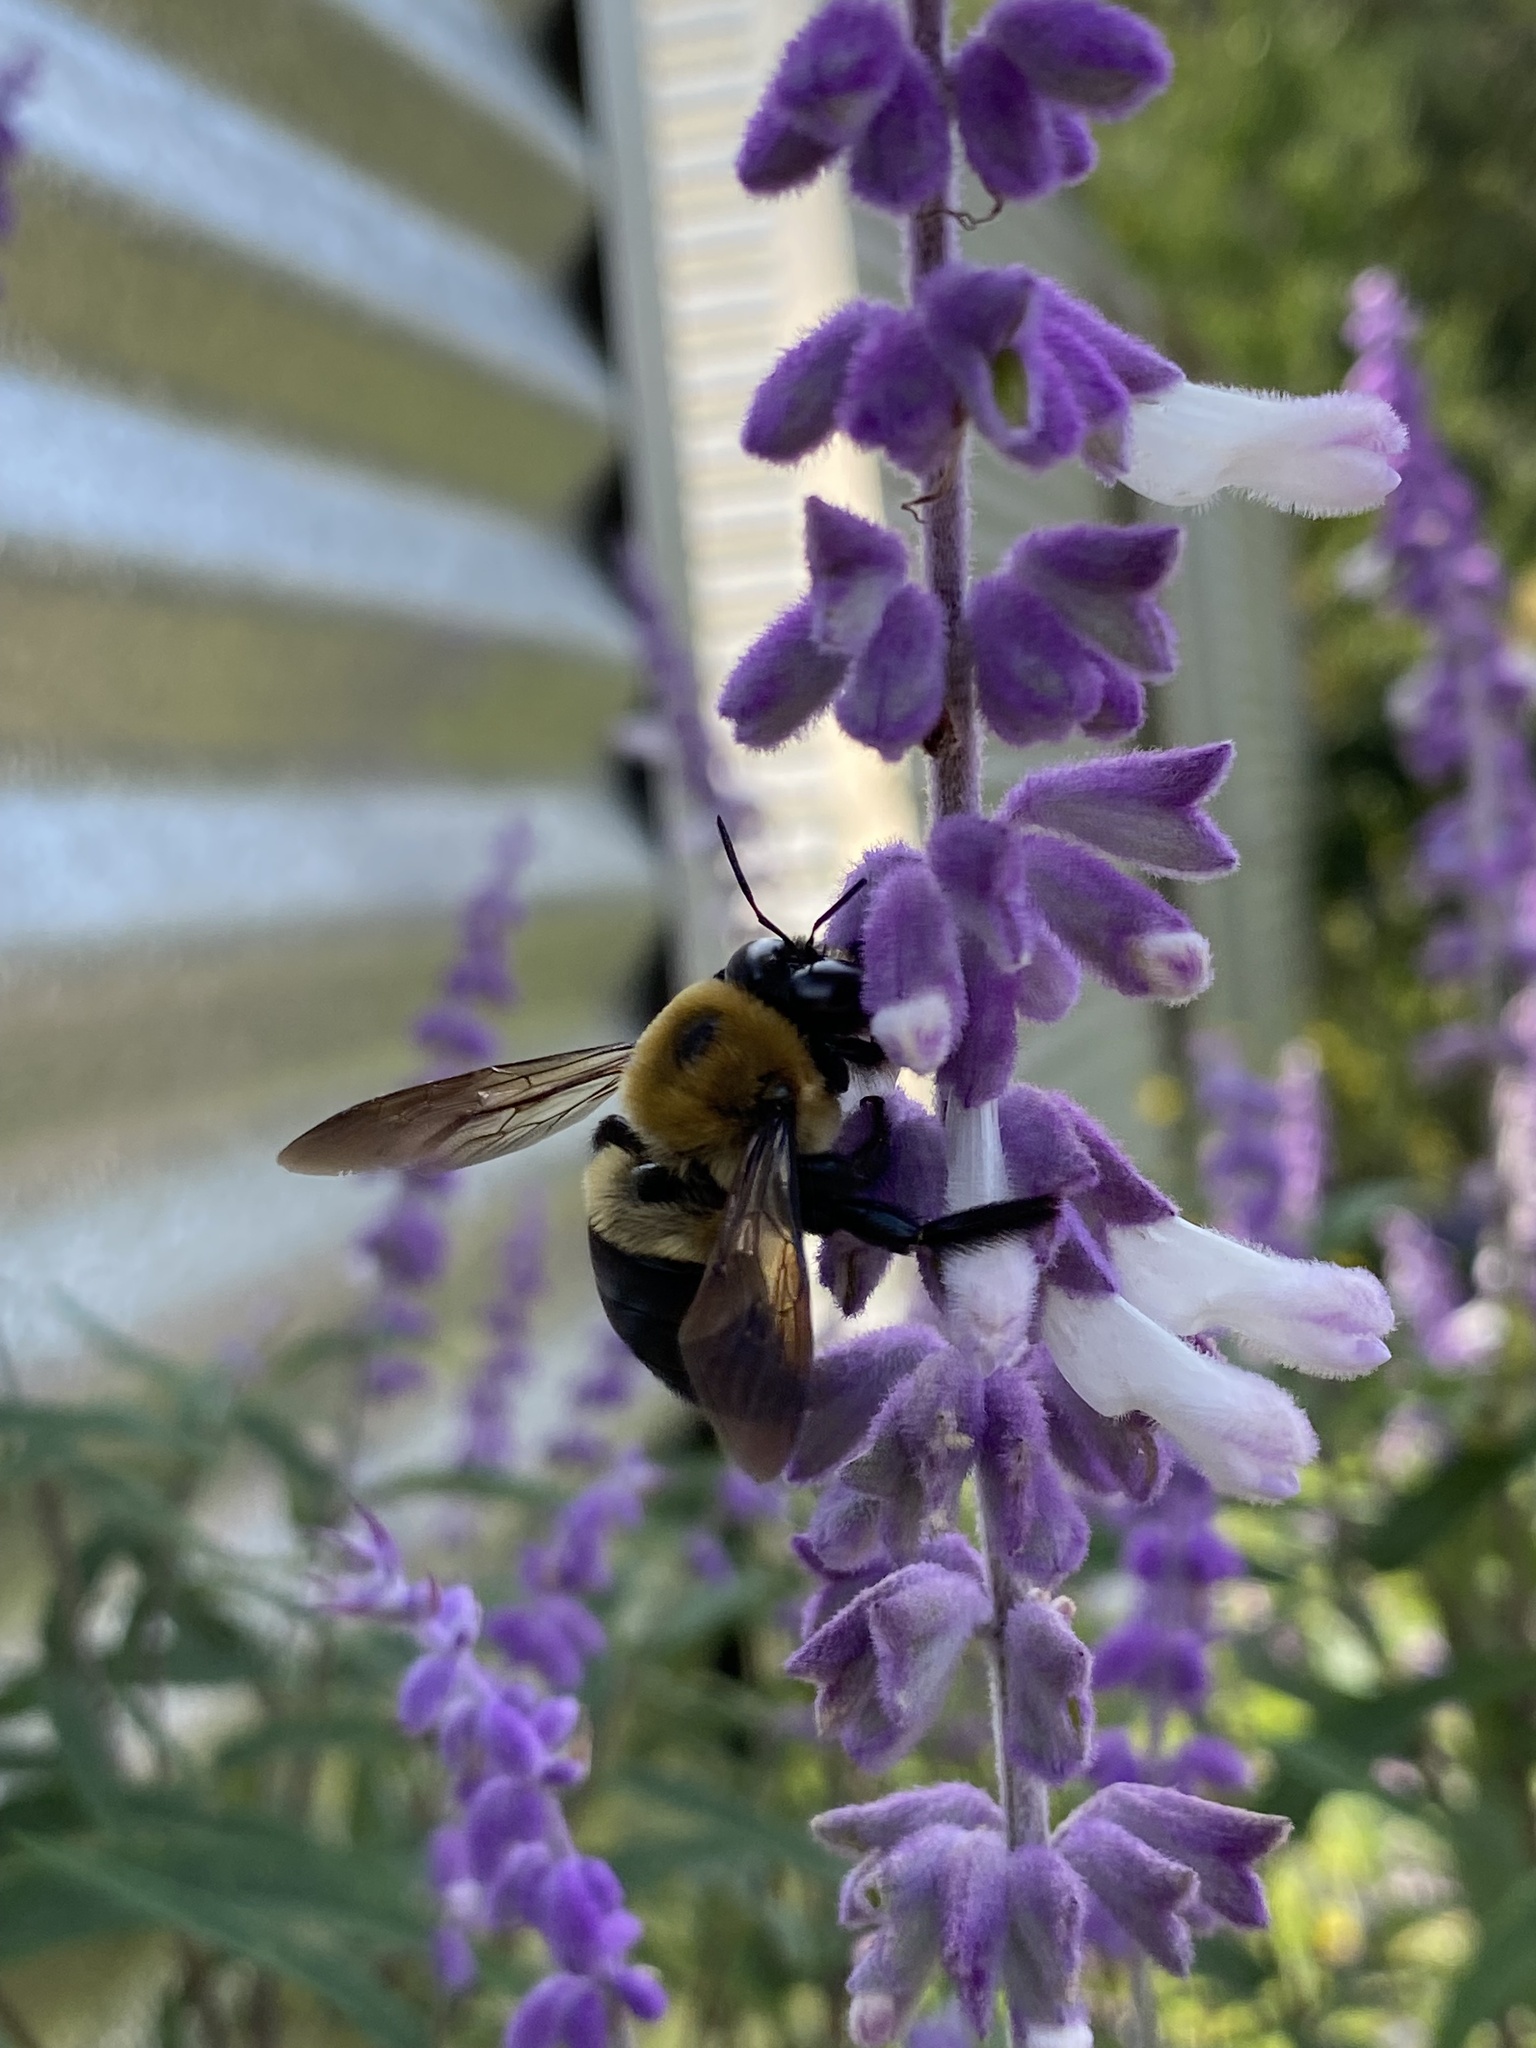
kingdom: Animalia
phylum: Arthropoda
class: Insecta
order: Hymenoptera
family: Apidae
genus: Xylocopa
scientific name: Xylocopa virginica
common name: Carpenter bee
